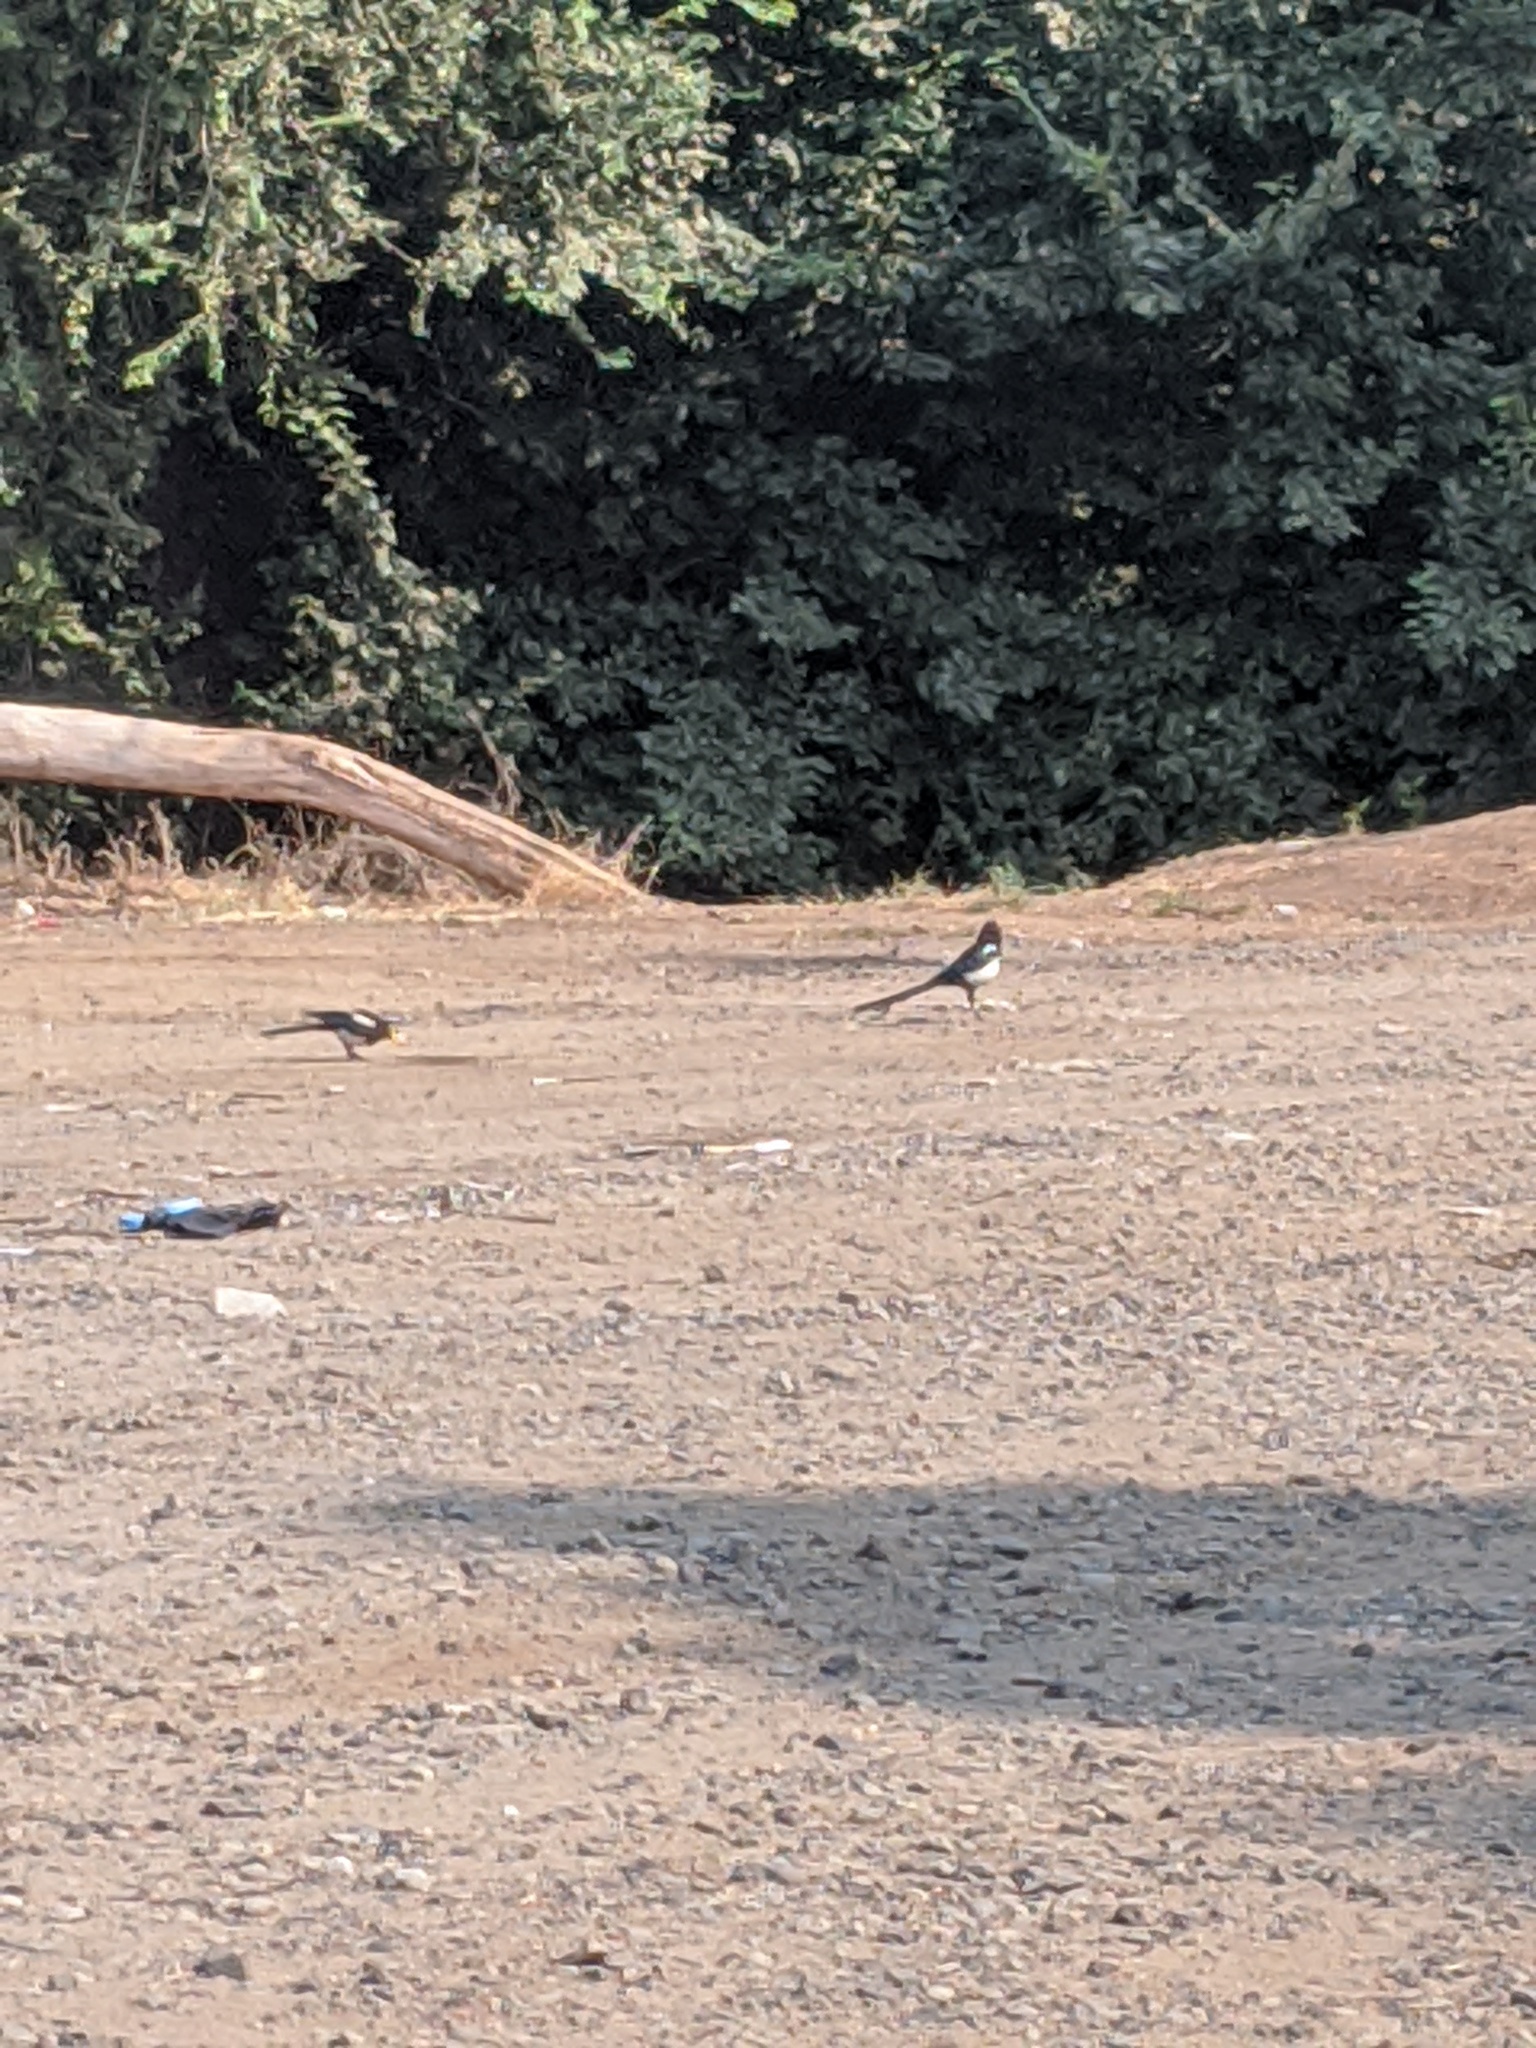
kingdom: Animalia
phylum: Chordata
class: Aves
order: Passeriformes
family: Corvidae
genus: Pica
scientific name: Pica nuttalli
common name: Yellow-billed magpie
